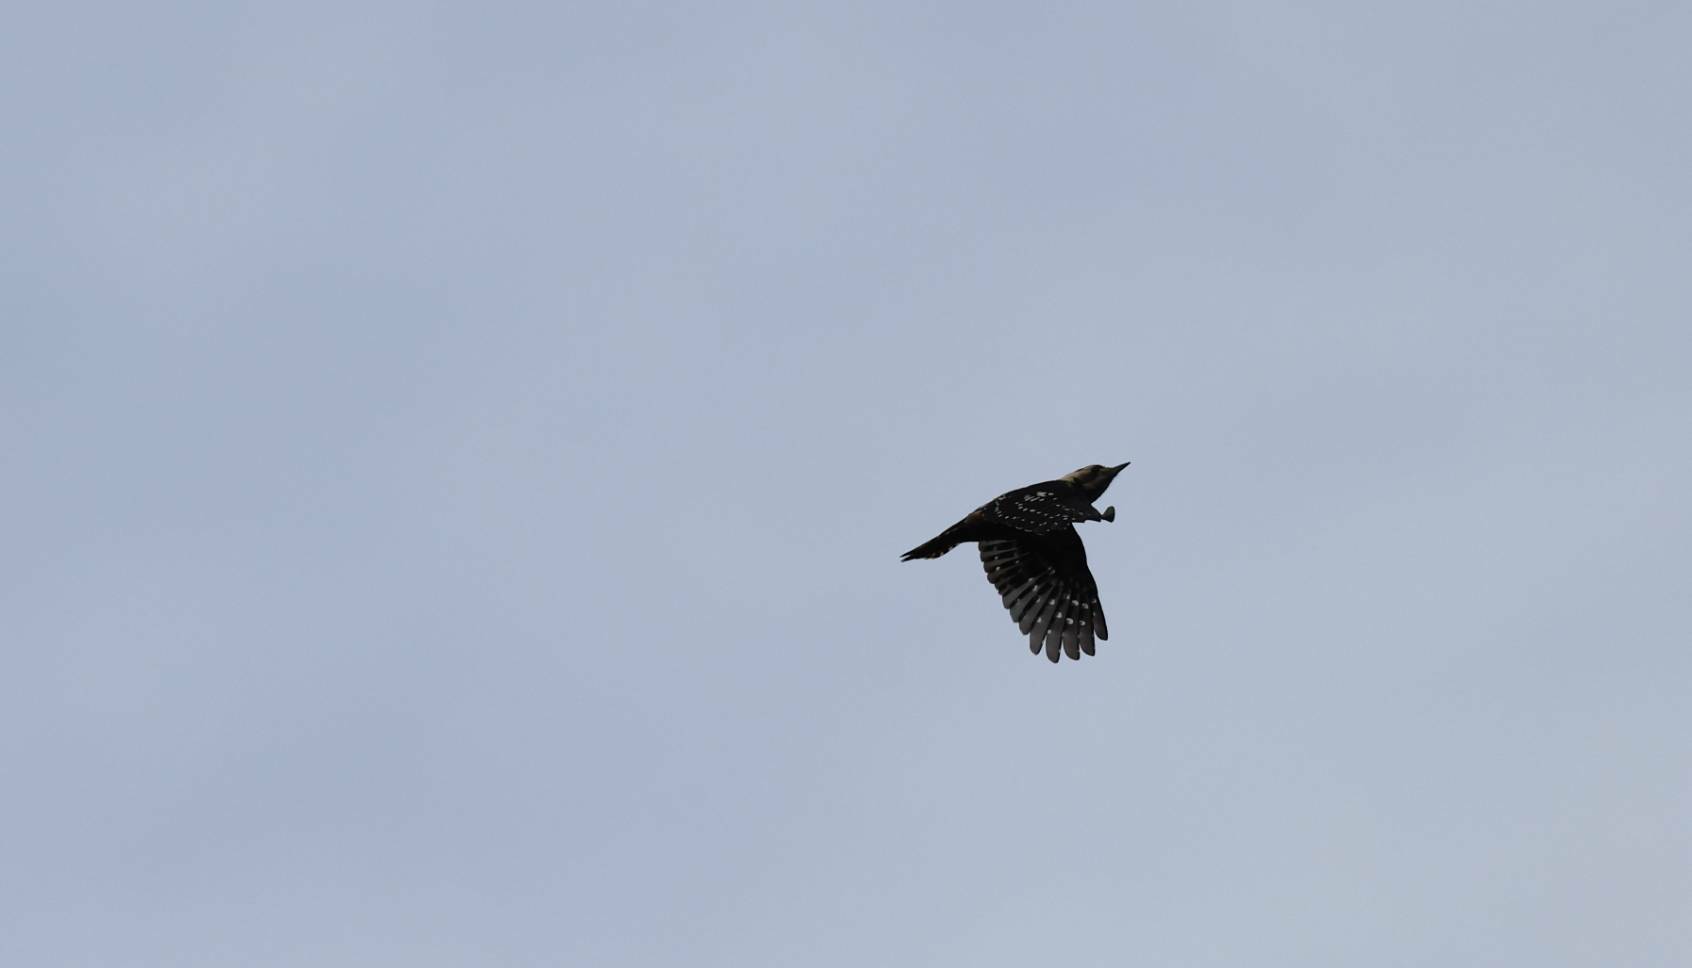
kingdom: Animalia
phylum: Chordata
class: Aves
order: Piciformes
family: Picidae
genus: Yungipicus
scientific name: Yungipicus canicapillus
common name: Grey-capped pygmy woodpecker
